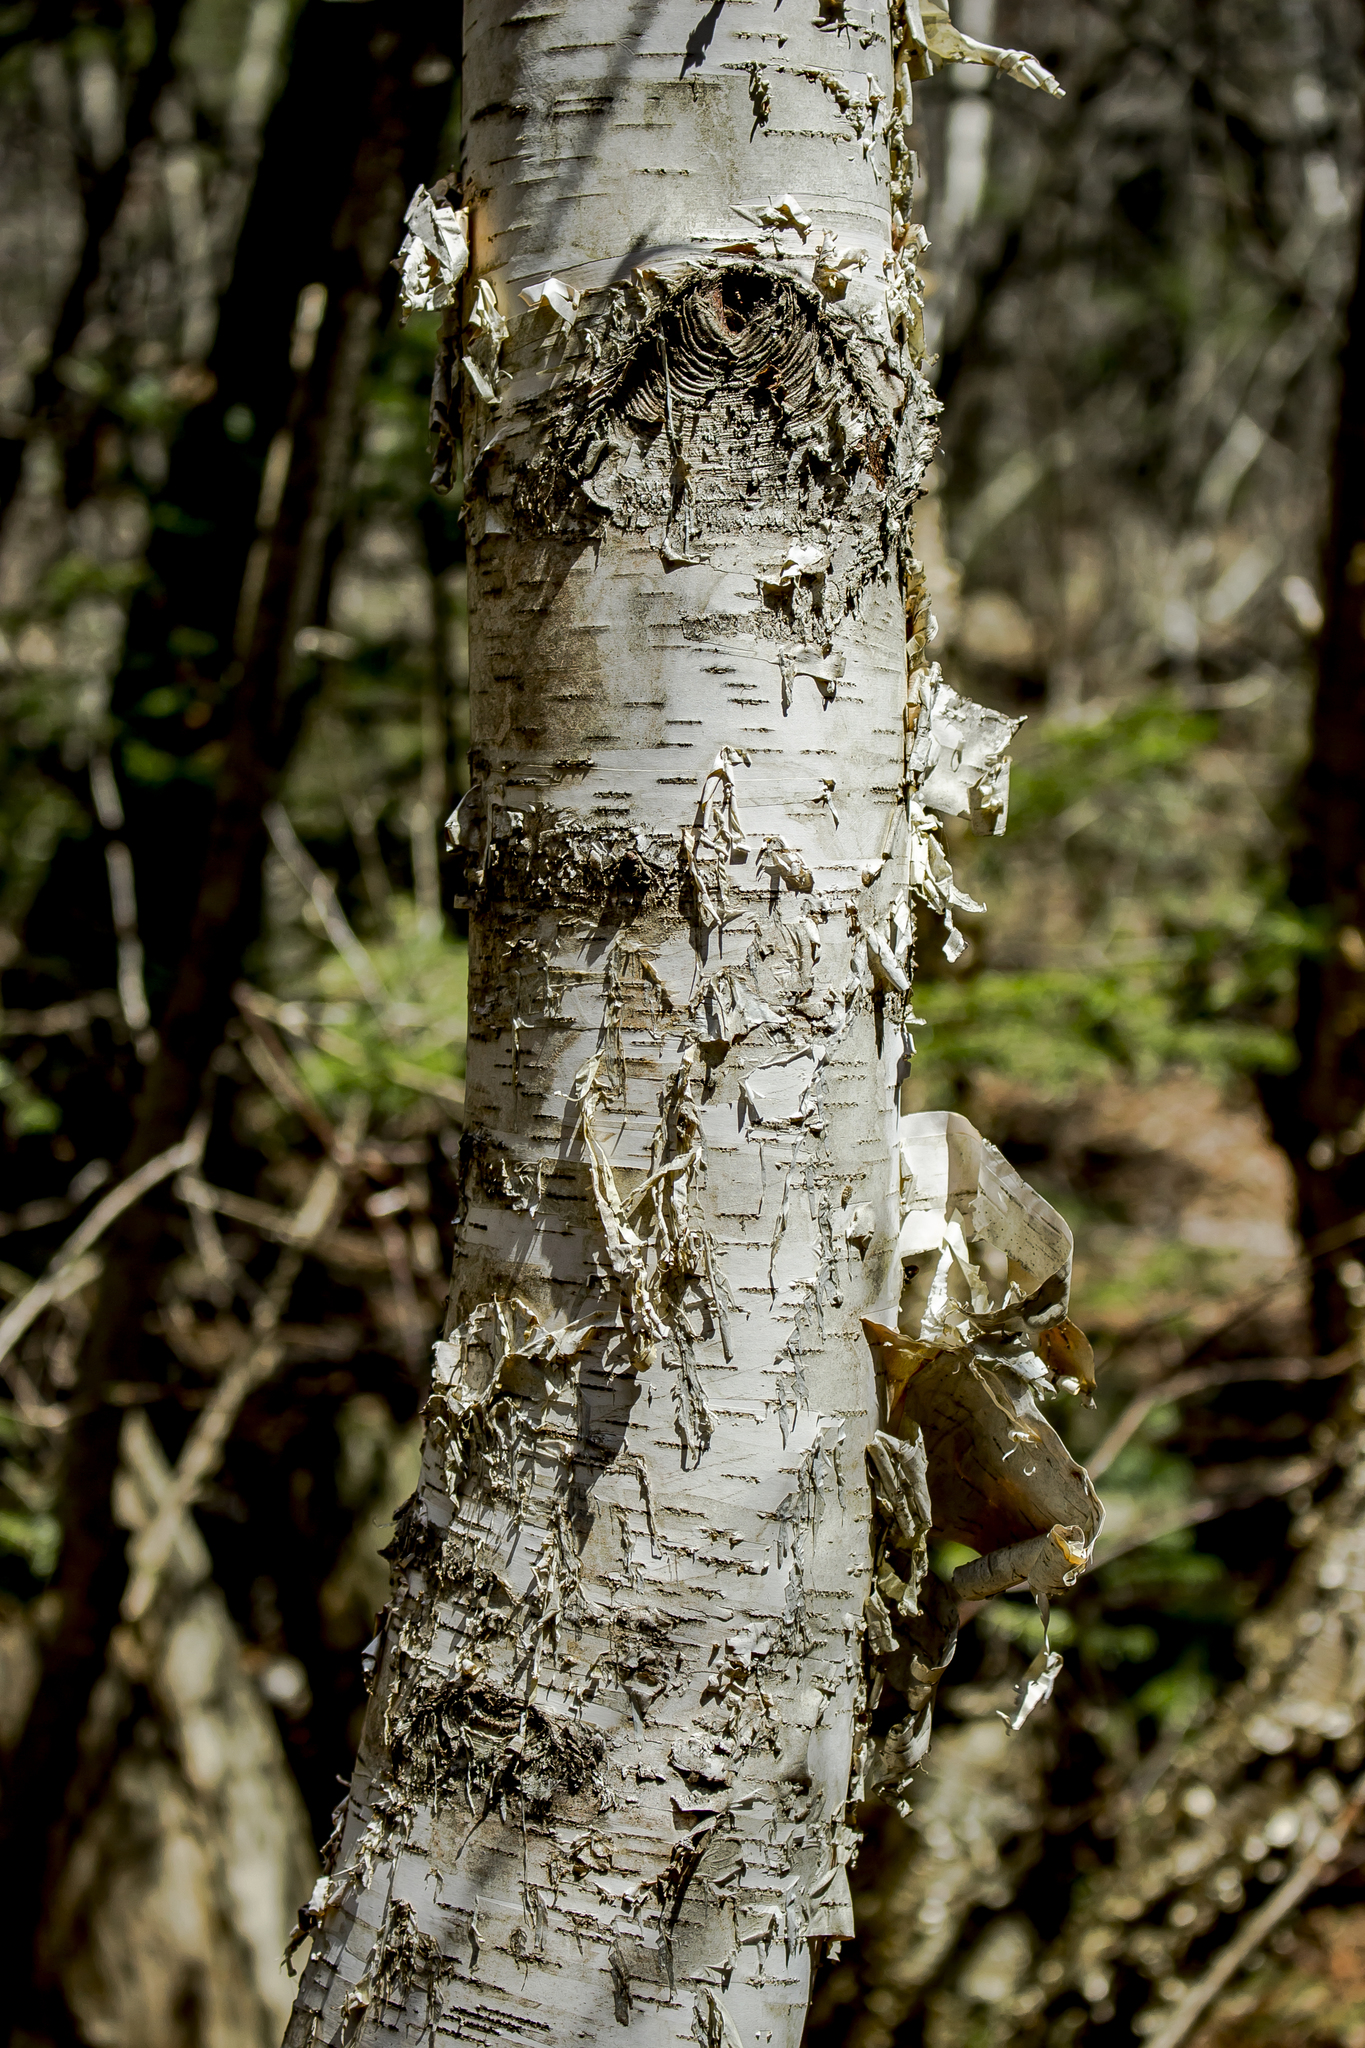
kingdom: Plantae
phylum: Tracheophyta
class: Magnoliopsida
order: Fagales
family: Betulaceae
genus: Betula
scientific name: Betula papyrifera
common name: Paper birch
